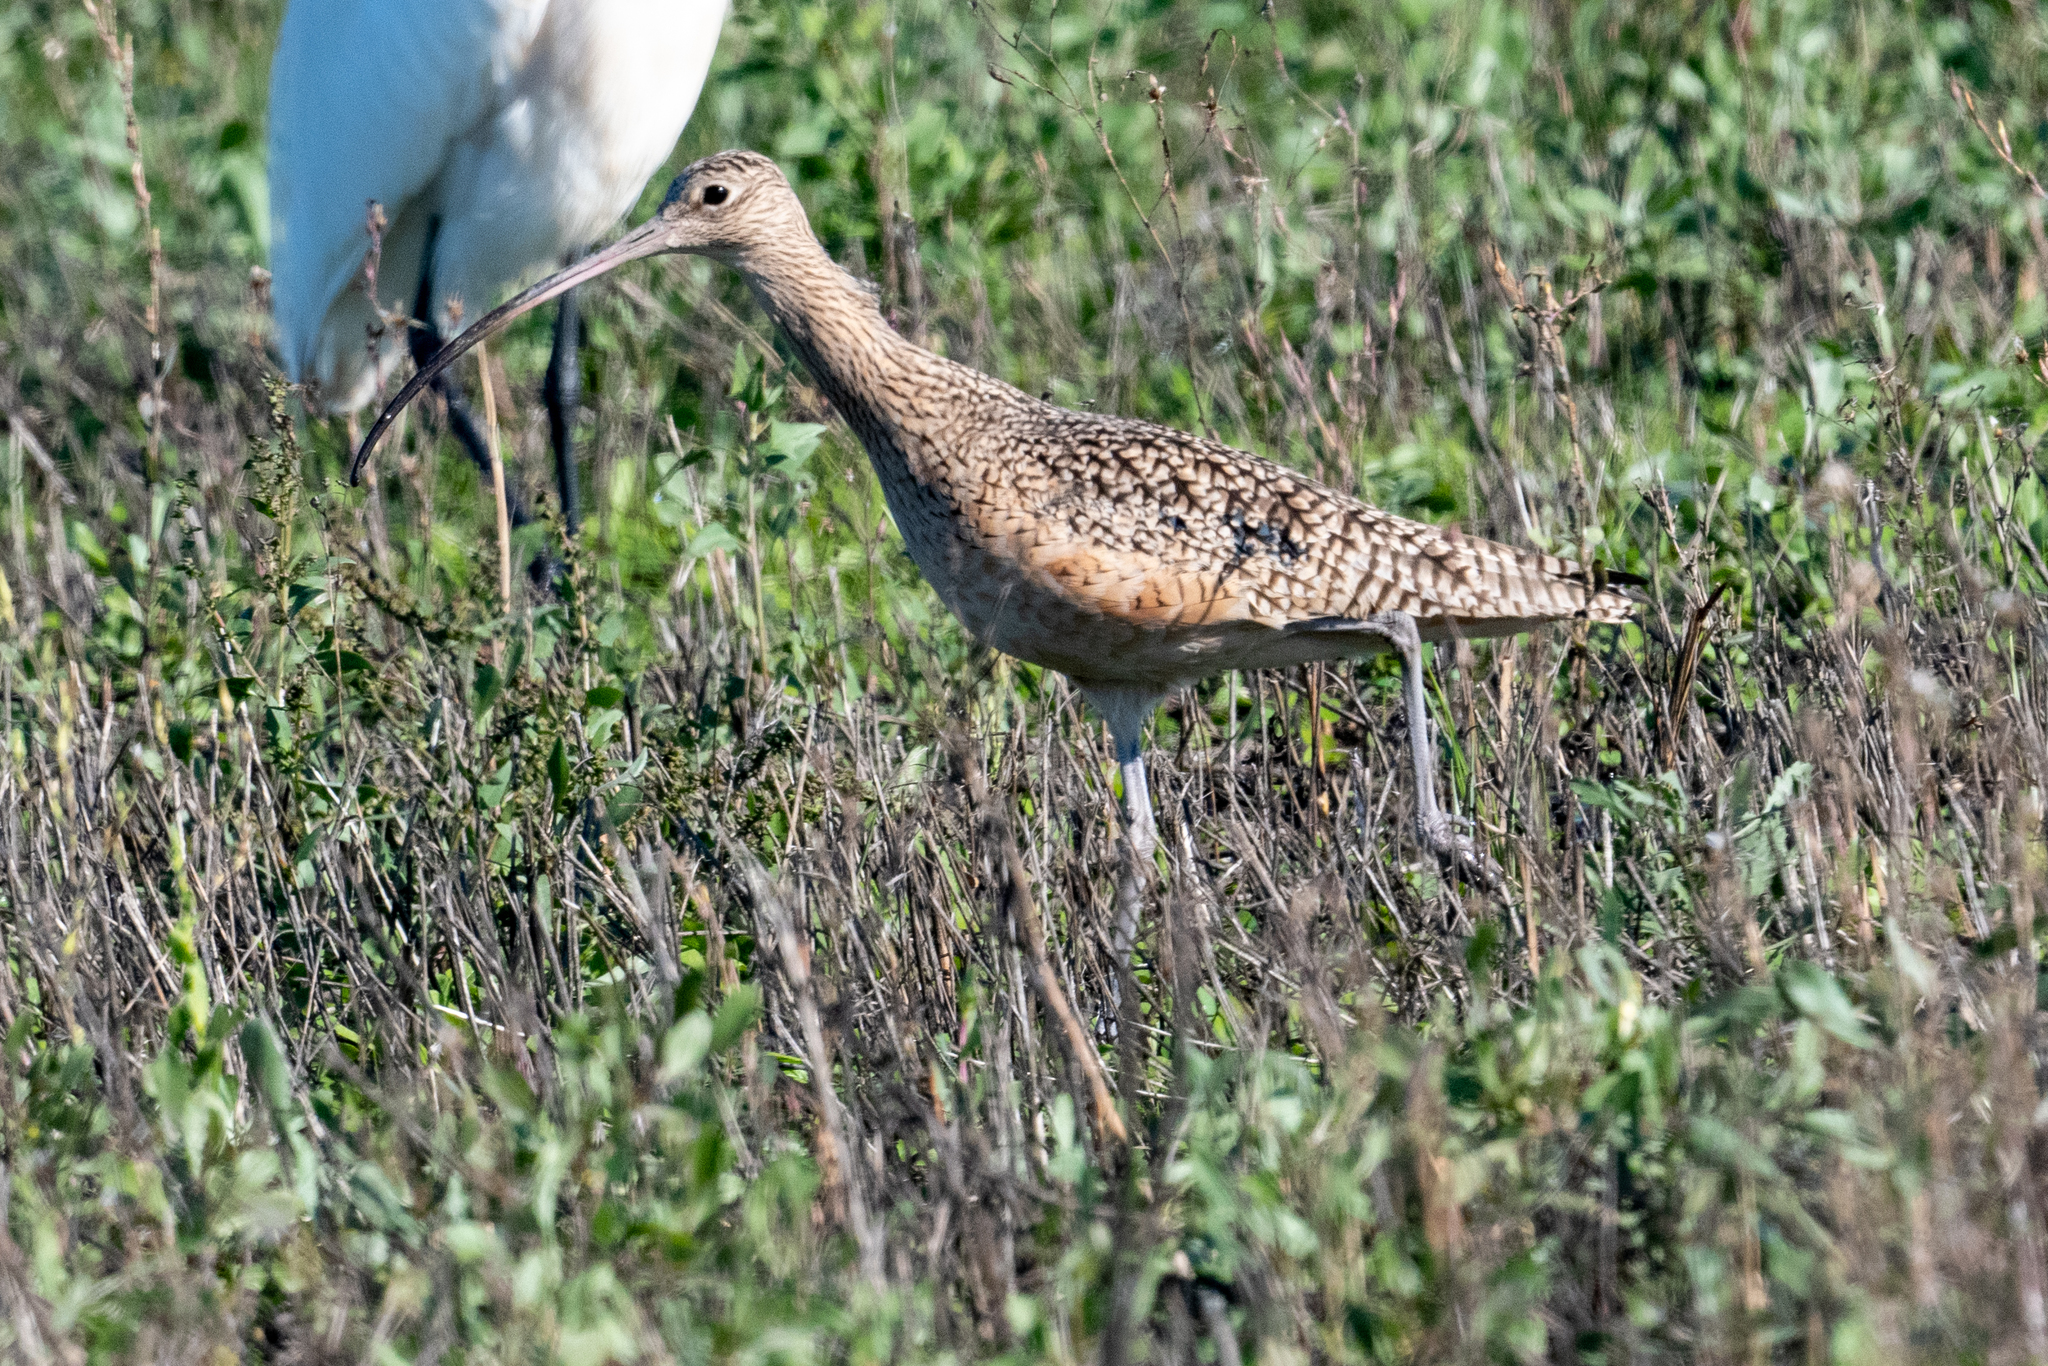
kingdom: Animalia
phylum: Chordata
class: Aves
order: Charadriiformes
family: Scolopacidae
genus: Numenius
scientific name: Numenius americanus
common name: Long-billed curlew
